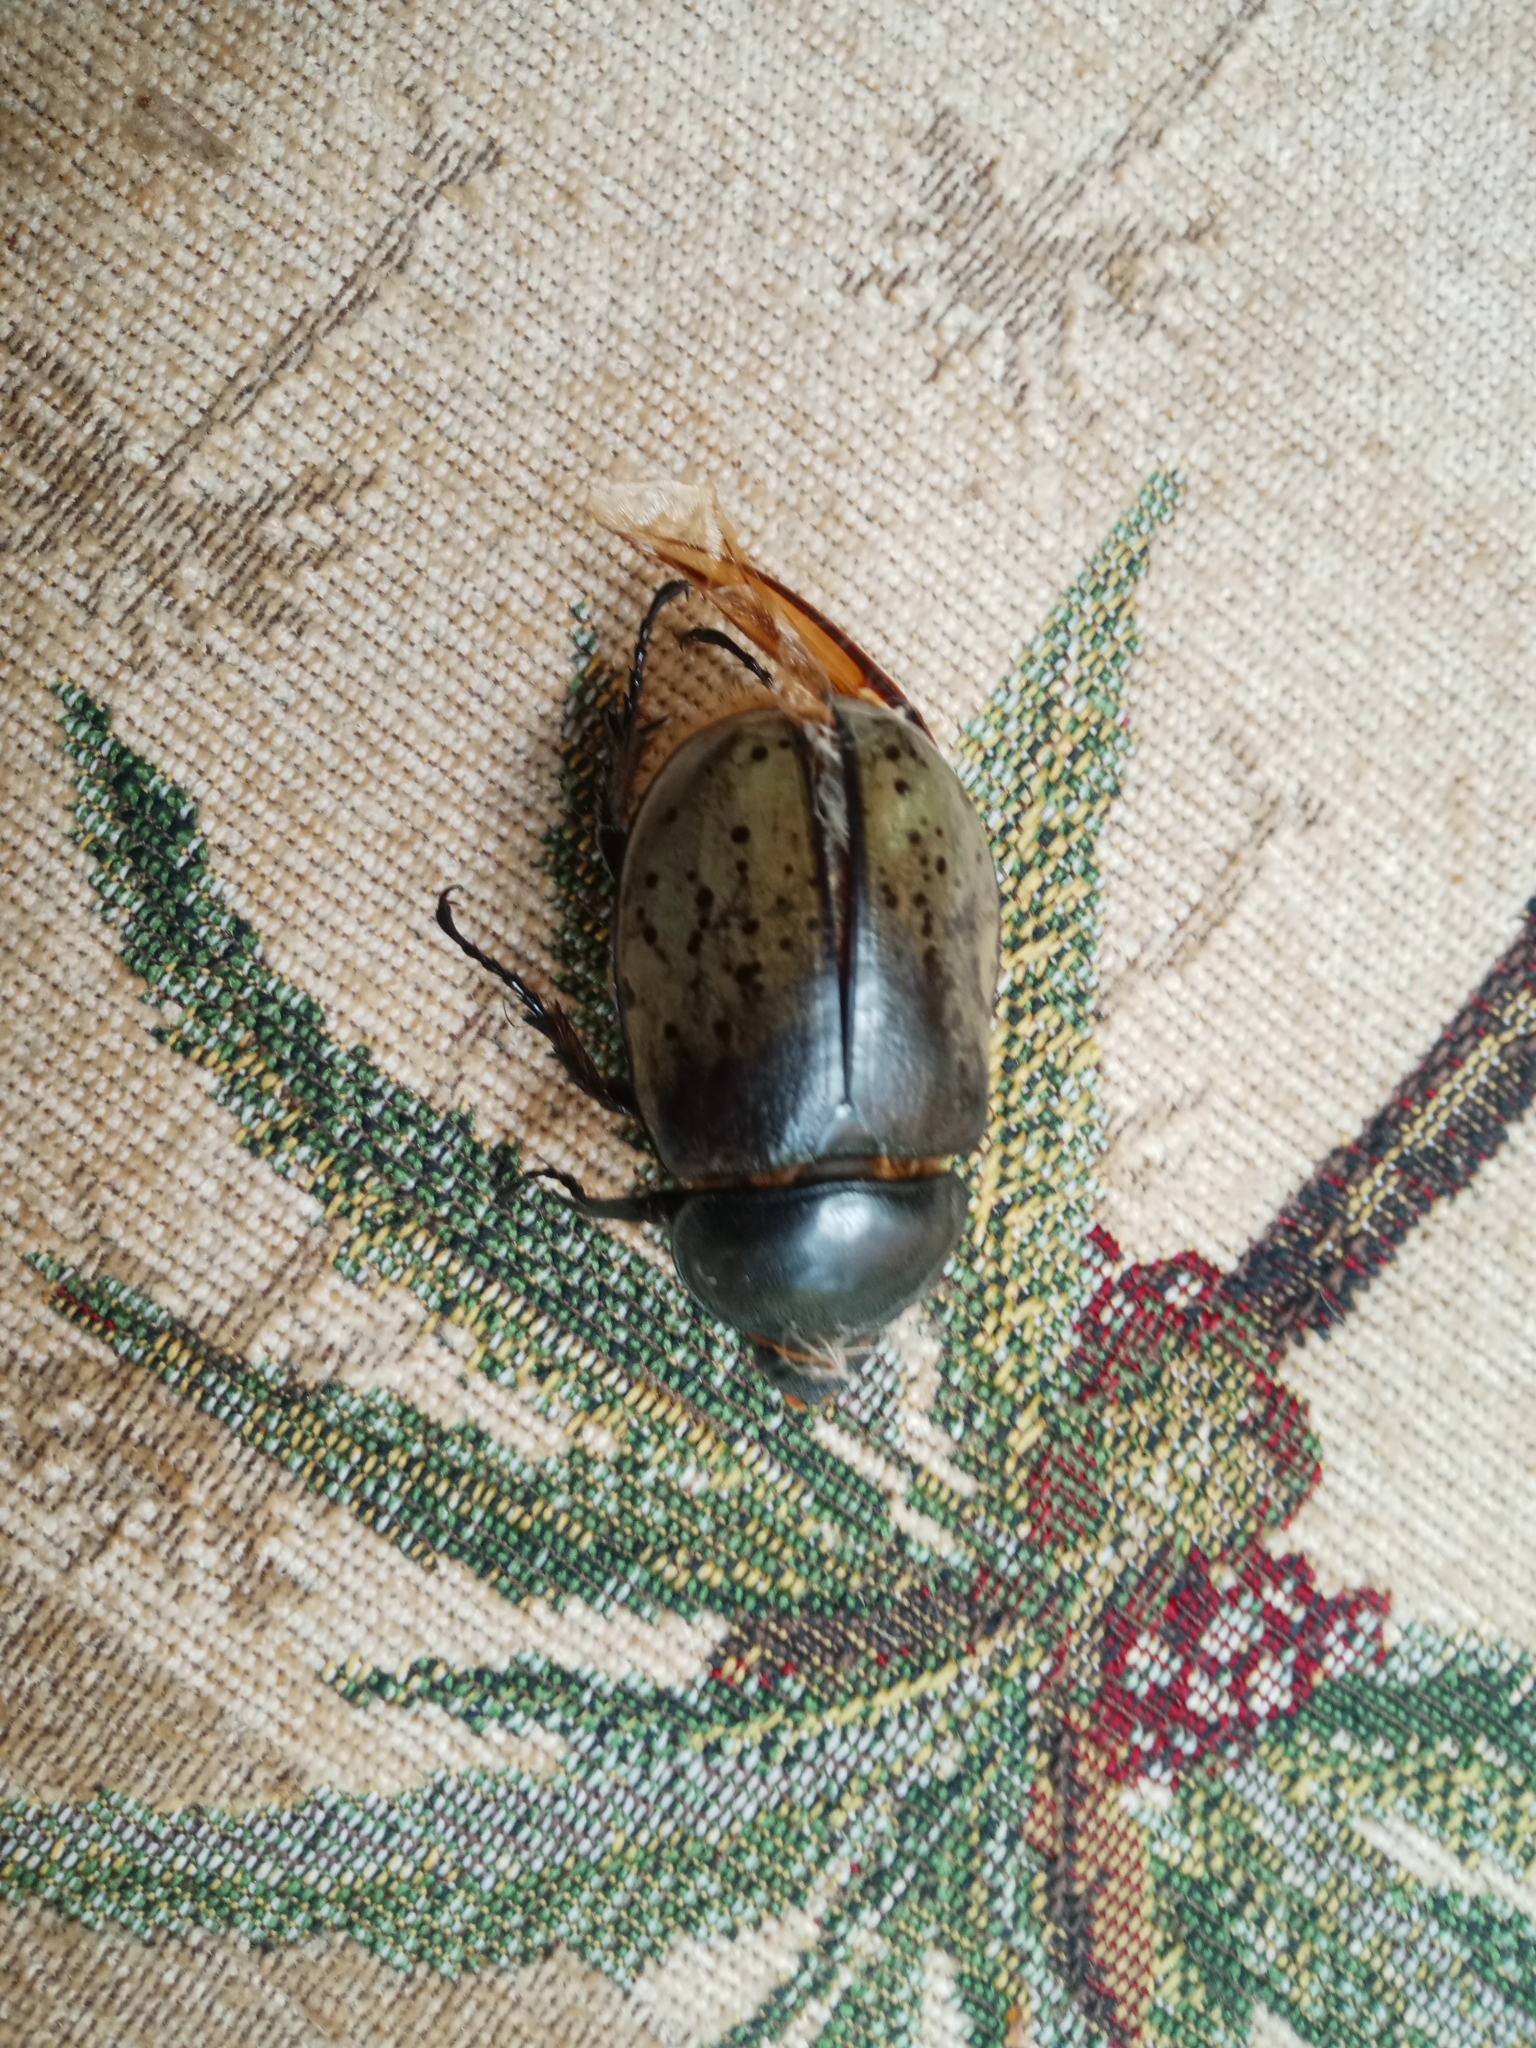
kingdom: Animalia
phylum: Arthropoda
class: Insecta
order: Coleoptera
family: Scarabaeidae
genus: Dynastes
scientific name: Dynastes tityus
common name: Eastern hercules beetle
